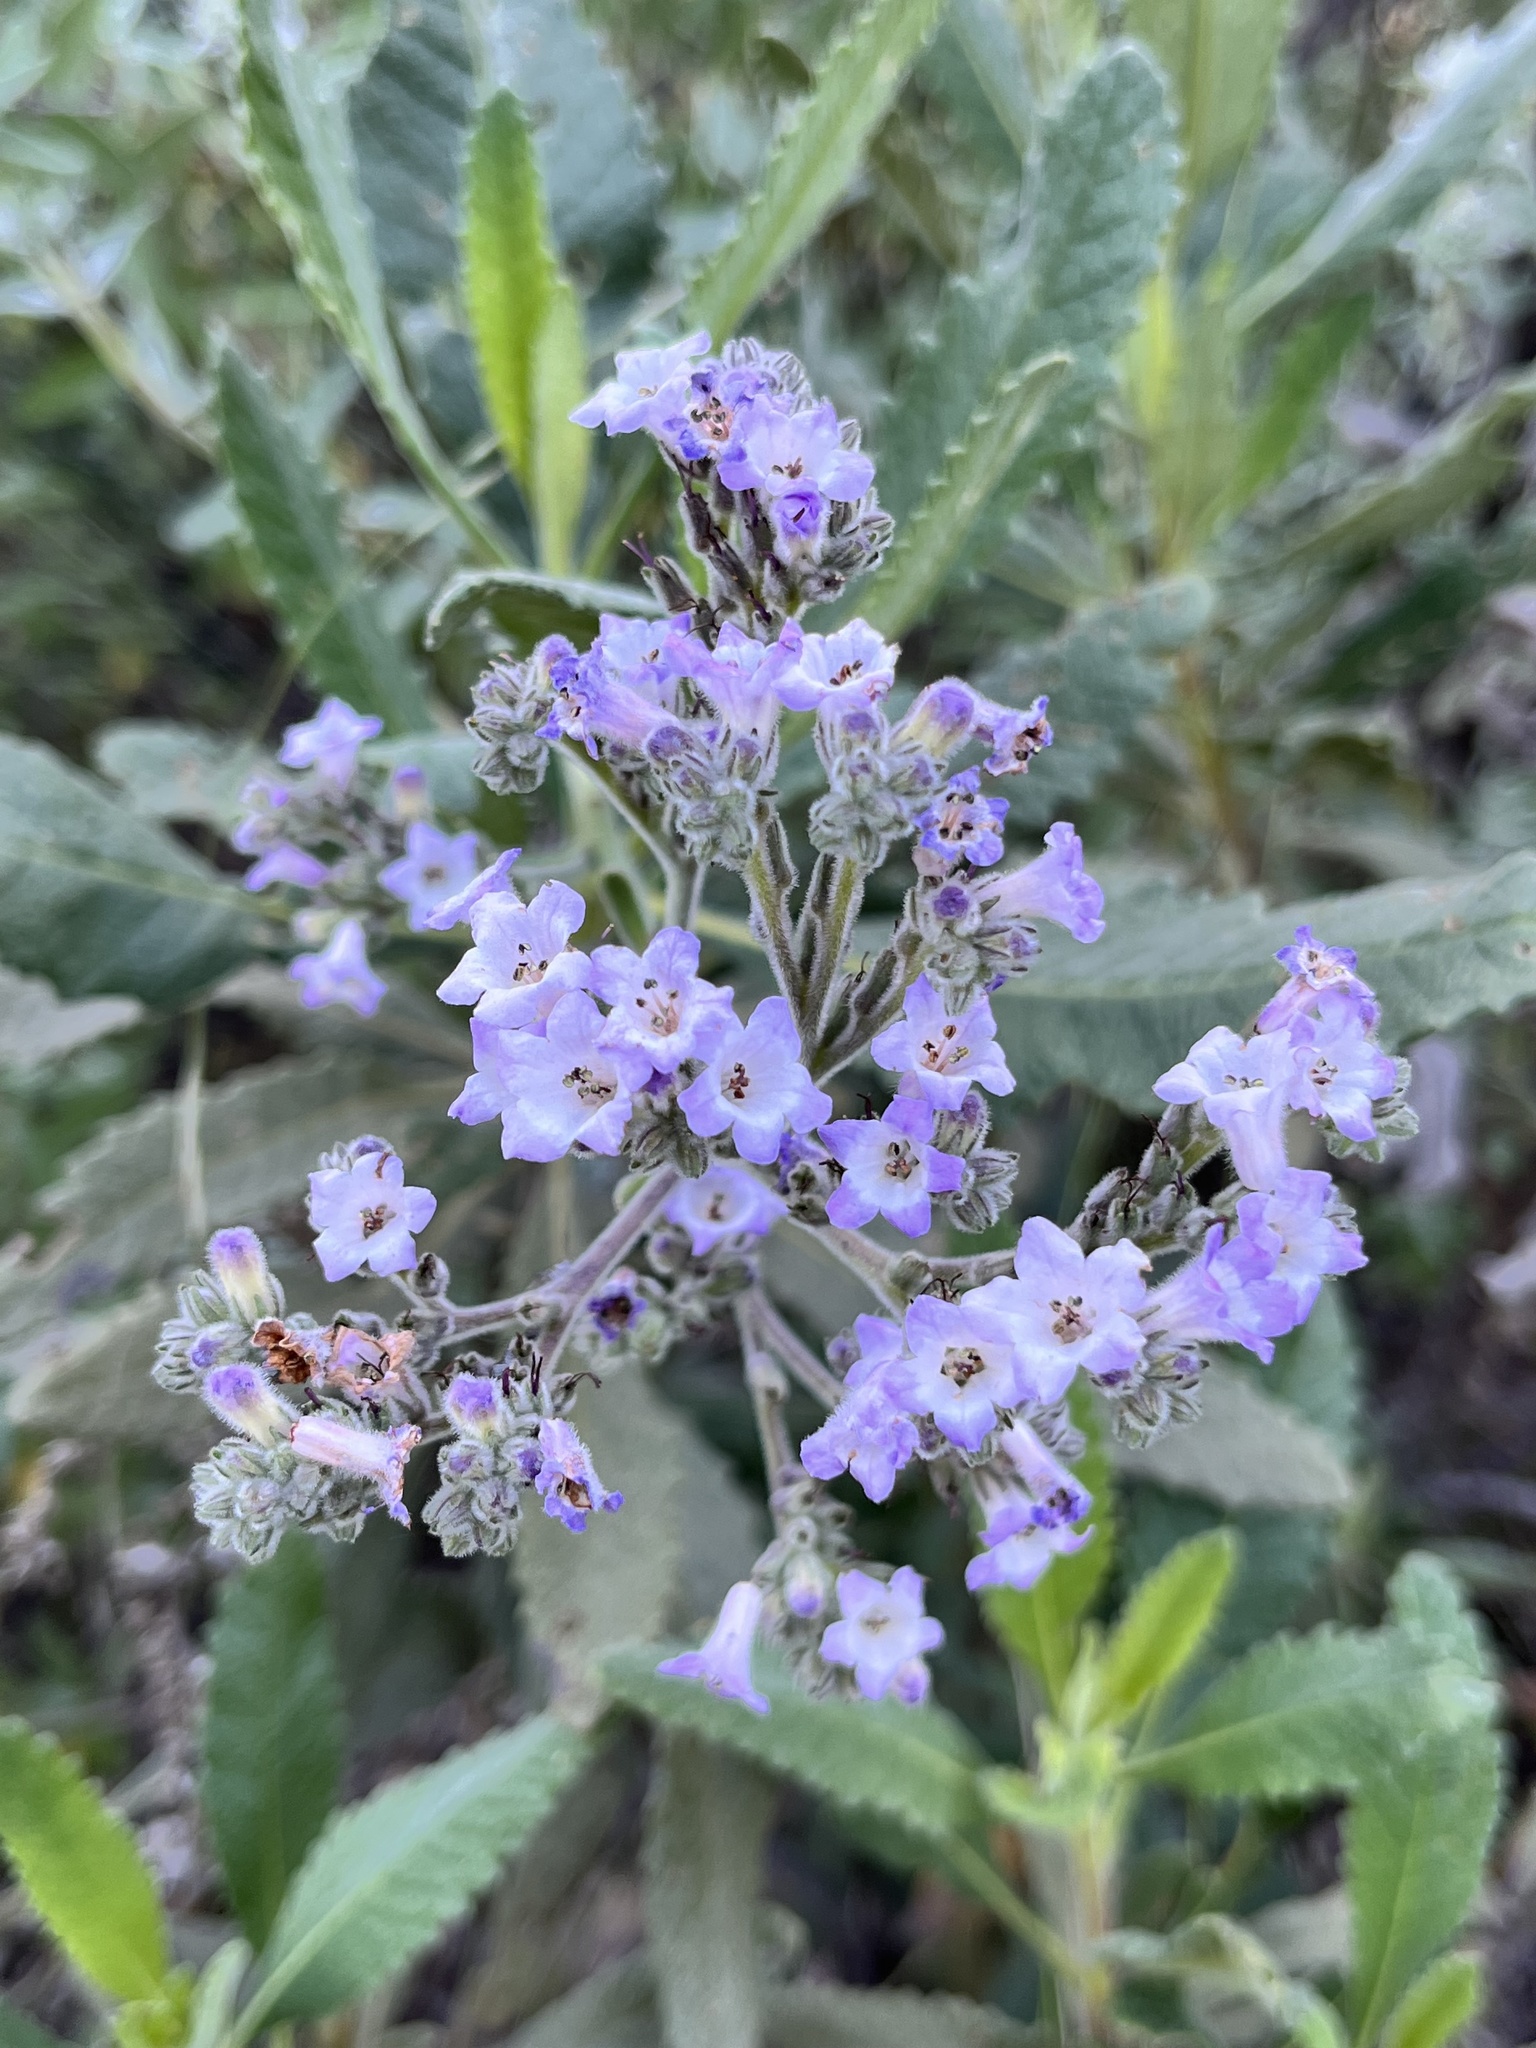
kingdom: Plantae
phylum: Tracheophyta
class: Magnoliopsida
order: Boraginales
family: Namaceae
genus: Eriodictyon
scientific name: Eriodictyon crassifolium
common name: Thick-leaf yerba-santa
